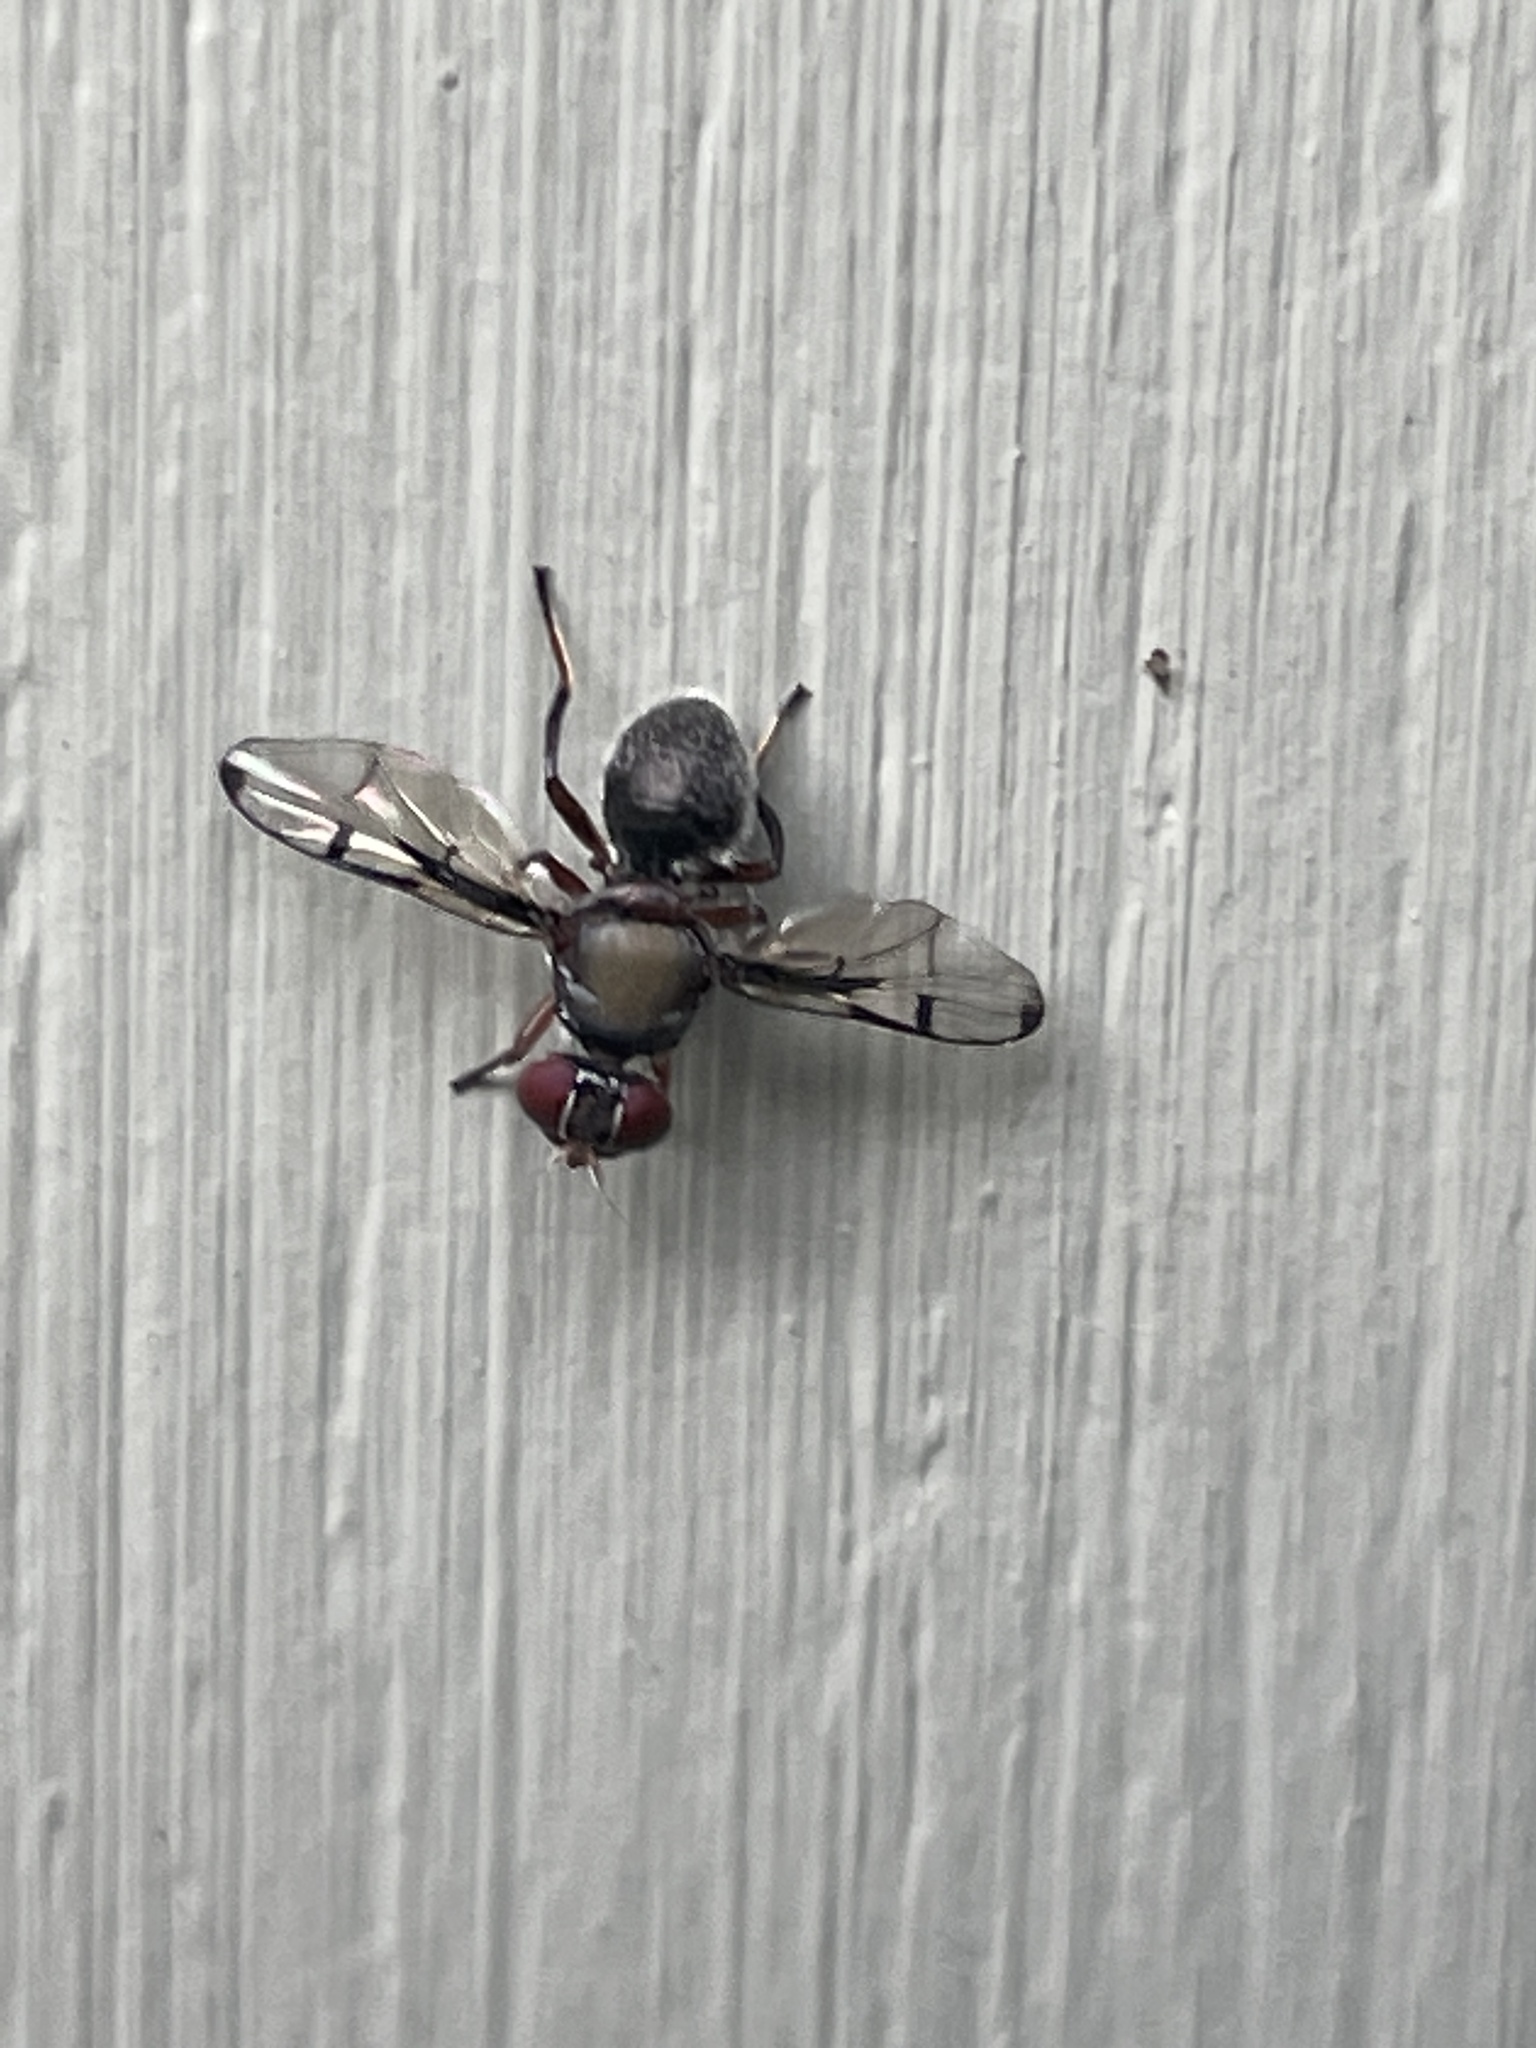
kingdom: Animalia
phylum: Arthropoda
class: Insecta
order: Diptera
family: Platystomatidae
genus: Pogonortalis
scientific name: Pogonortalis doclea
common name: Boatman fly
